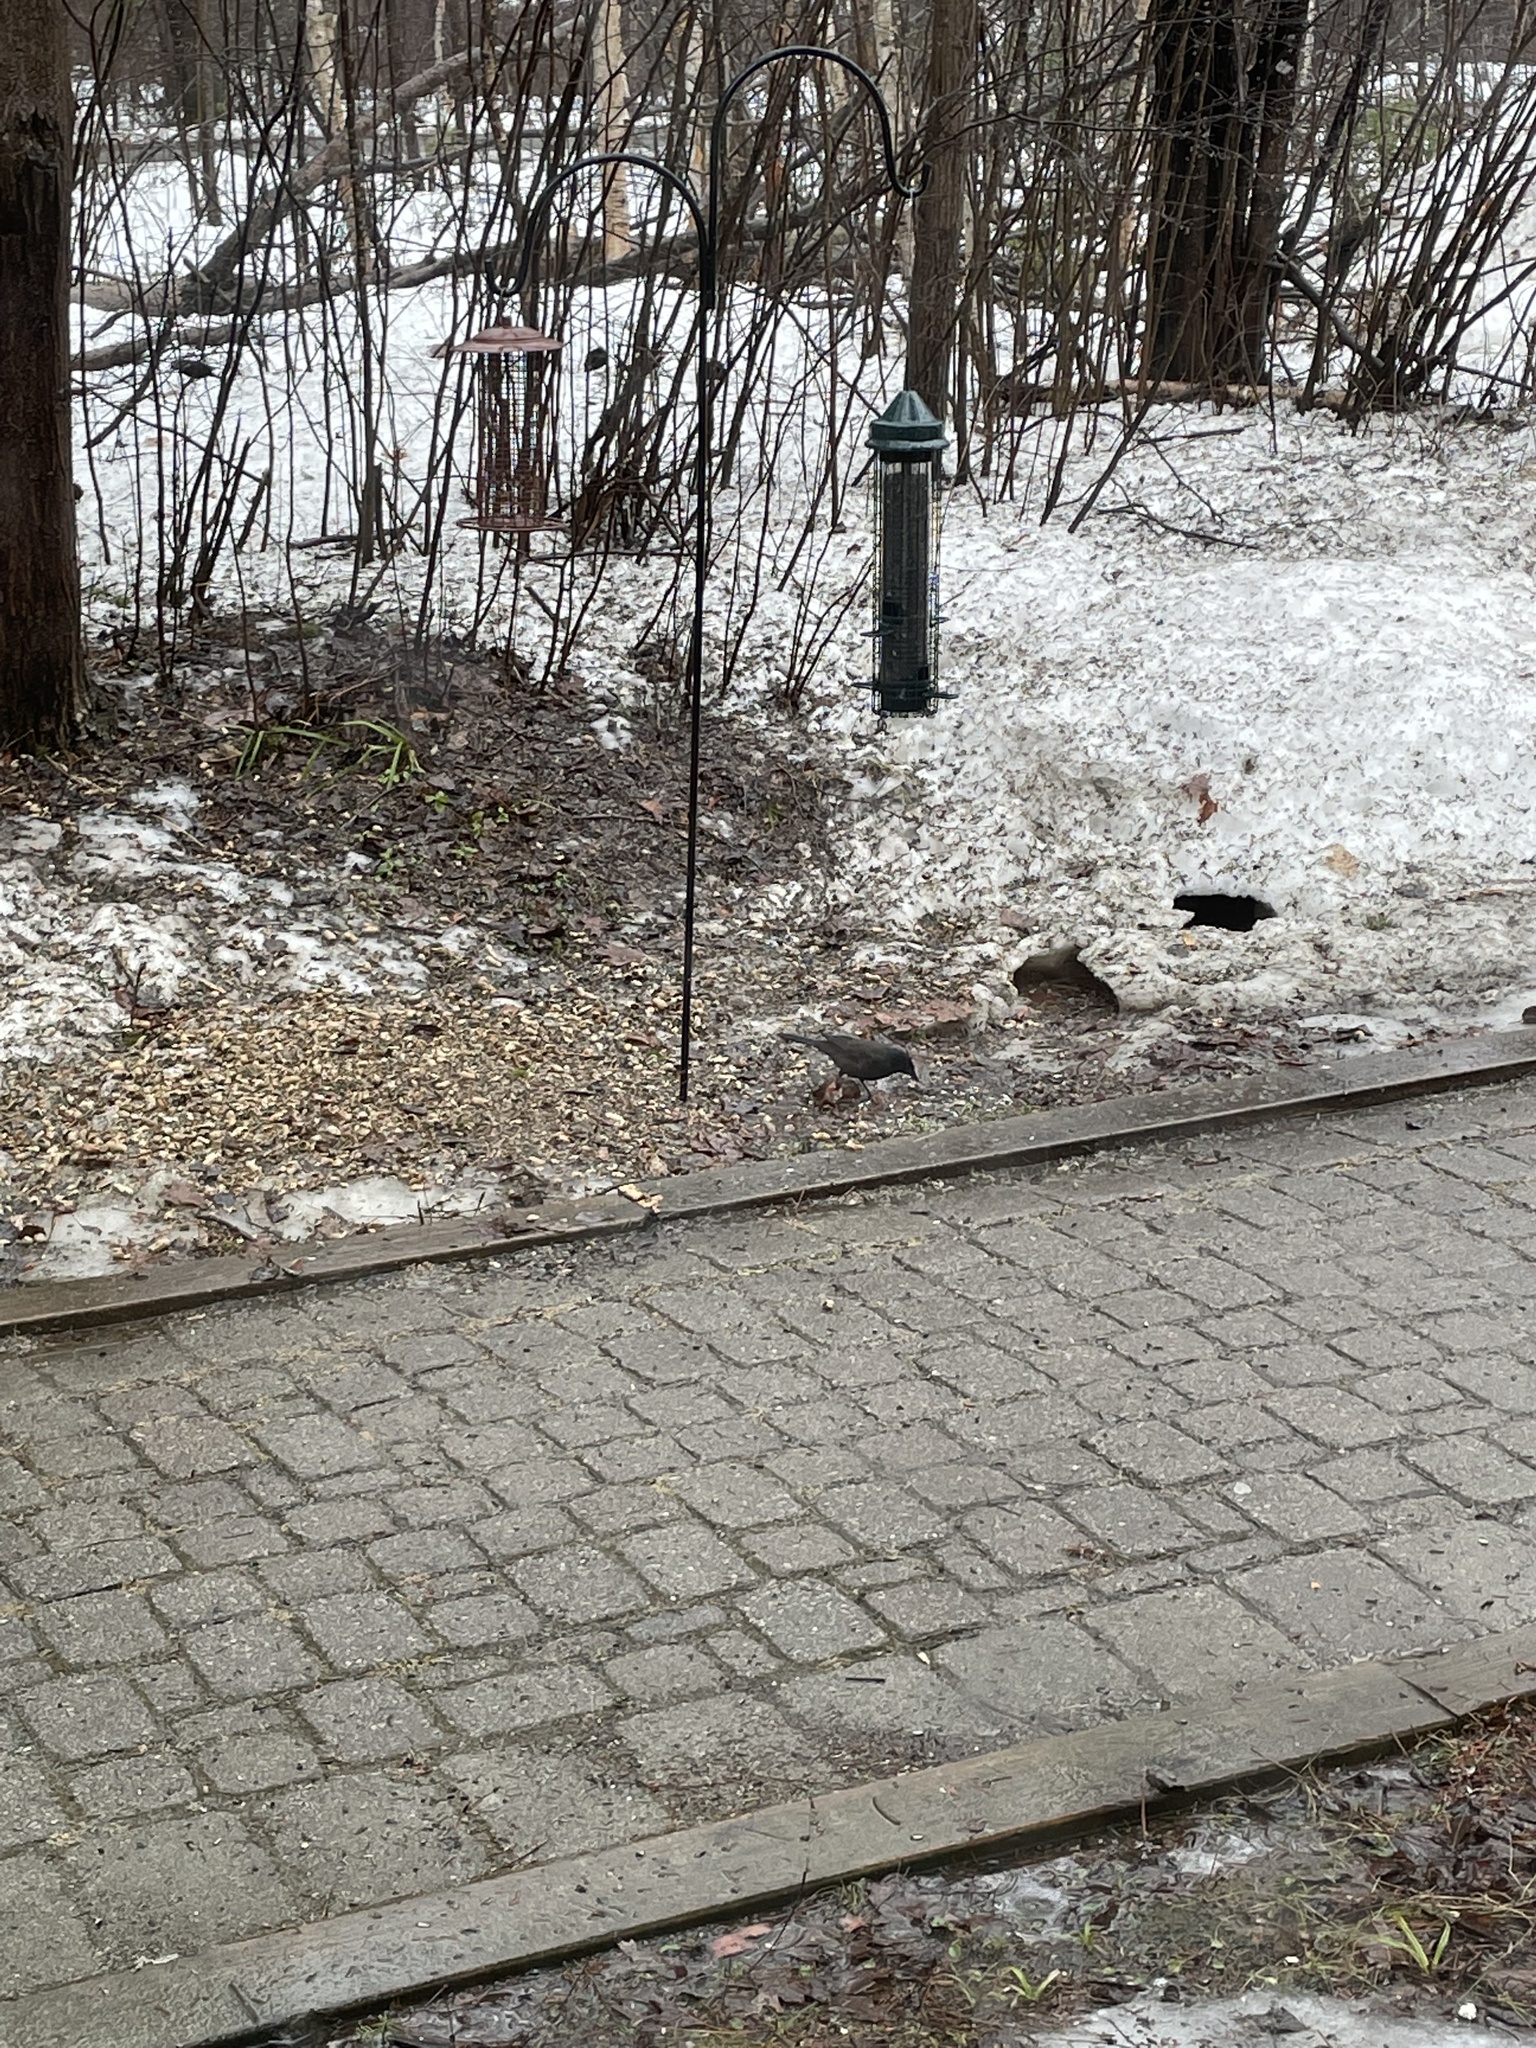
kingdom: Animalia
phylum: Chordata
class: Aves
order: Passeriformes
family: Icteridae
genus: Quiscalus
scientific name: Quiscalus quiscula
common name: Common grackle
